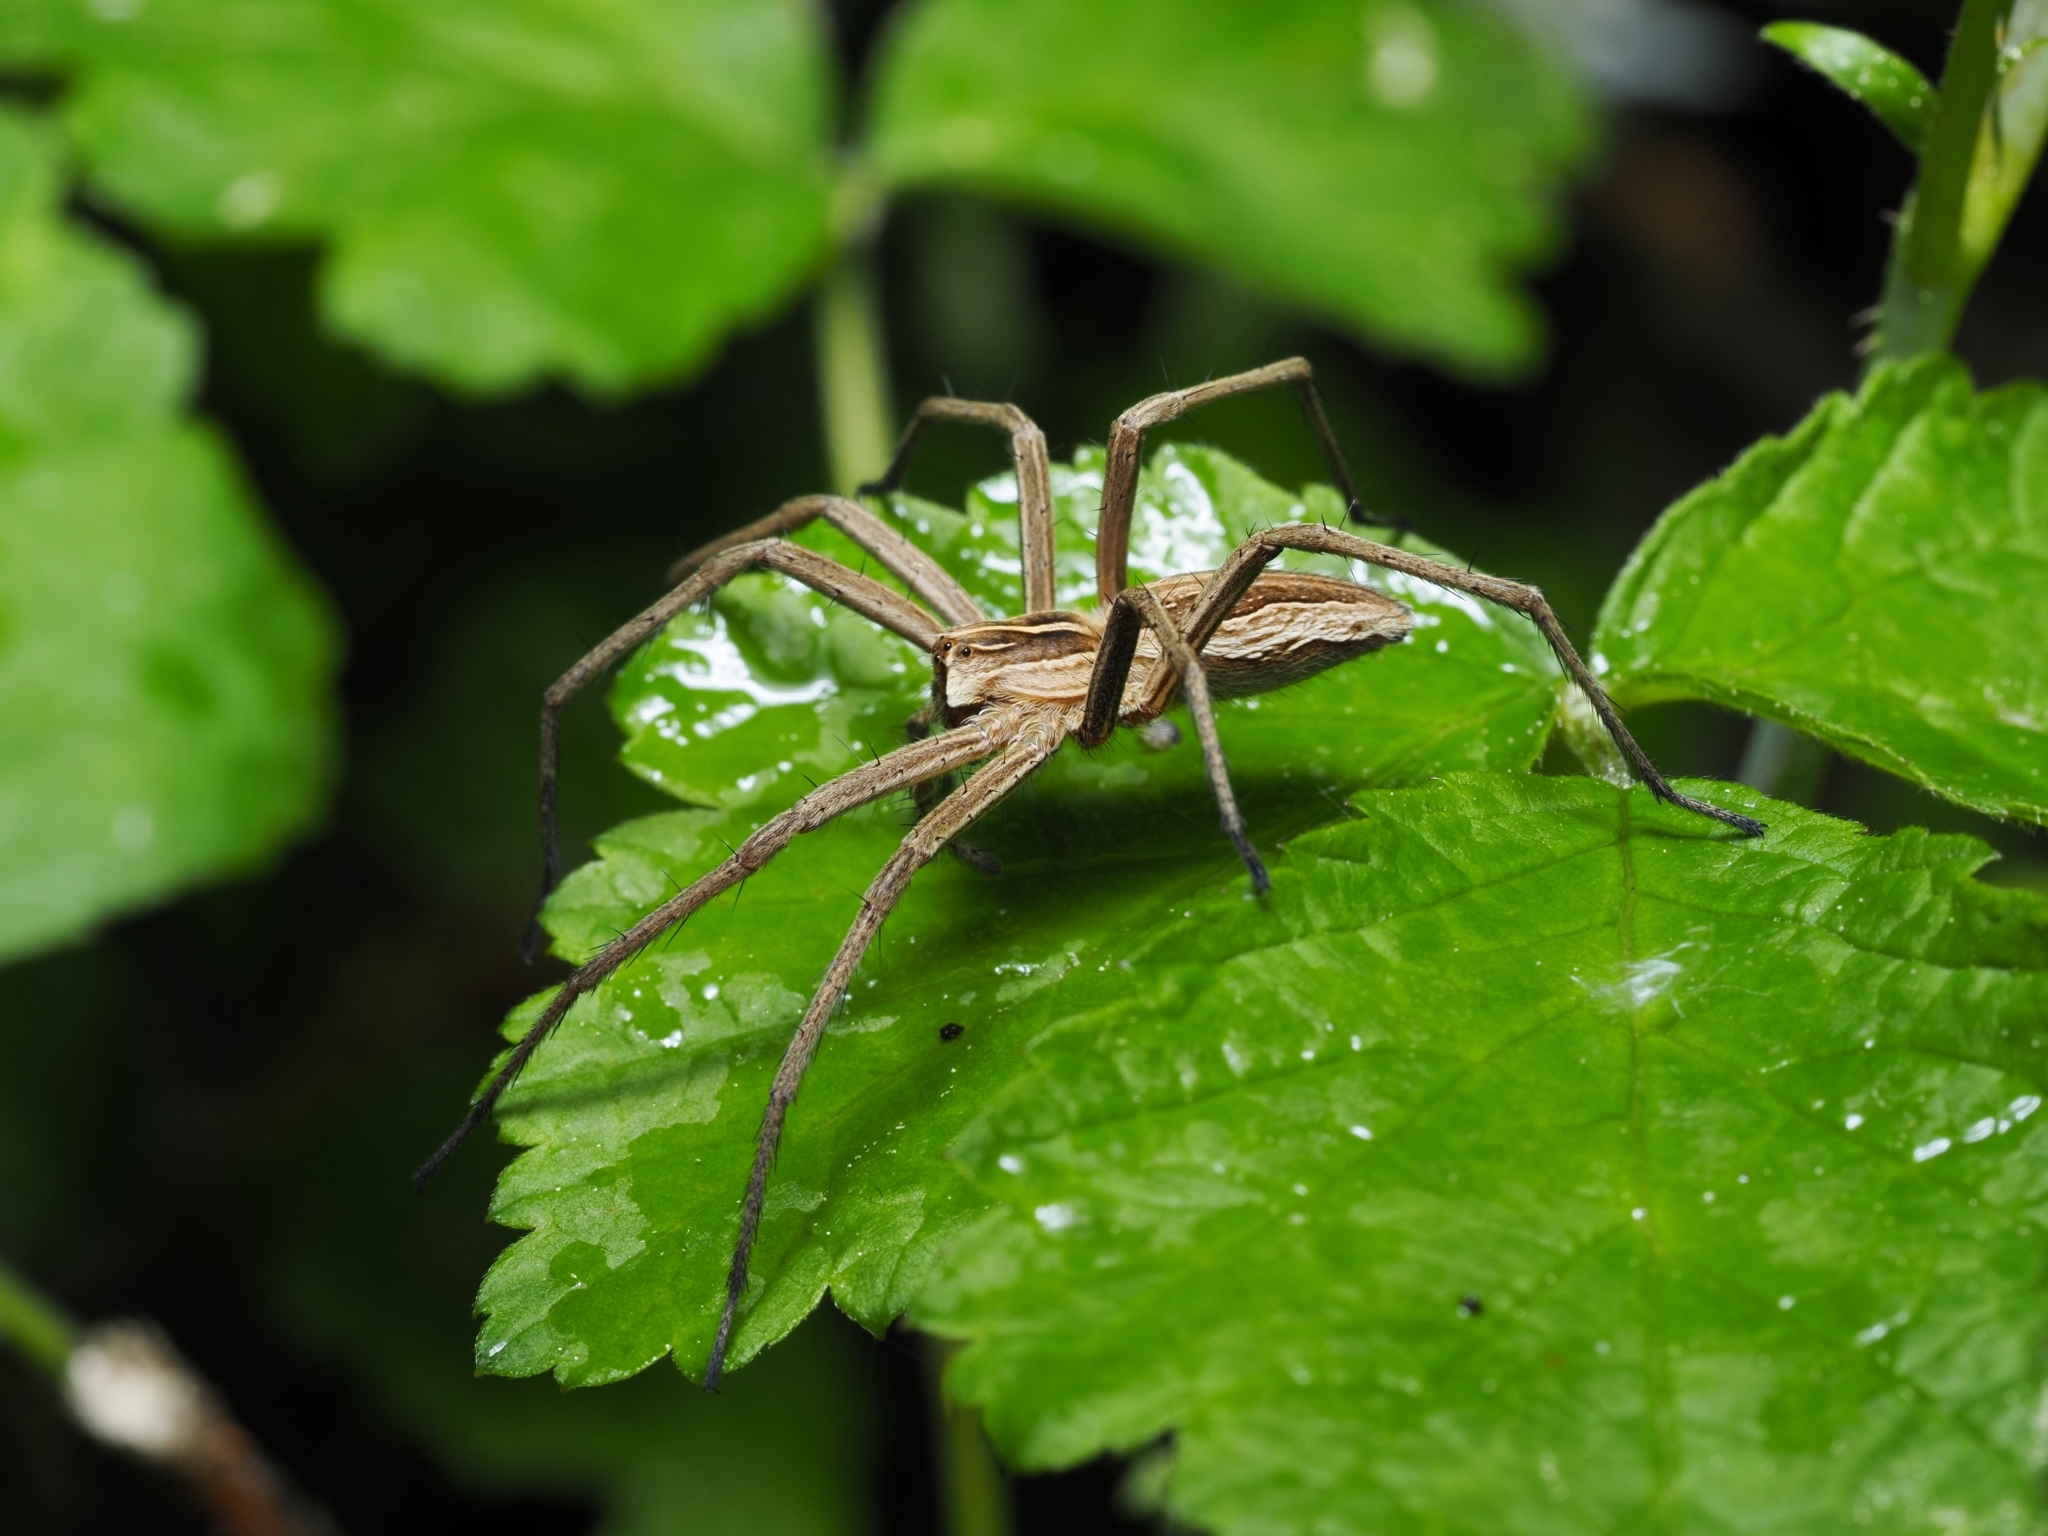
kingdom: Animalia
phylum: Arthropoda
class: Arachnida
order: Araneae
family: Pisauridae
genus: Pisaura
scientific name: Pisaura mirabilis
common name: Tent spider
